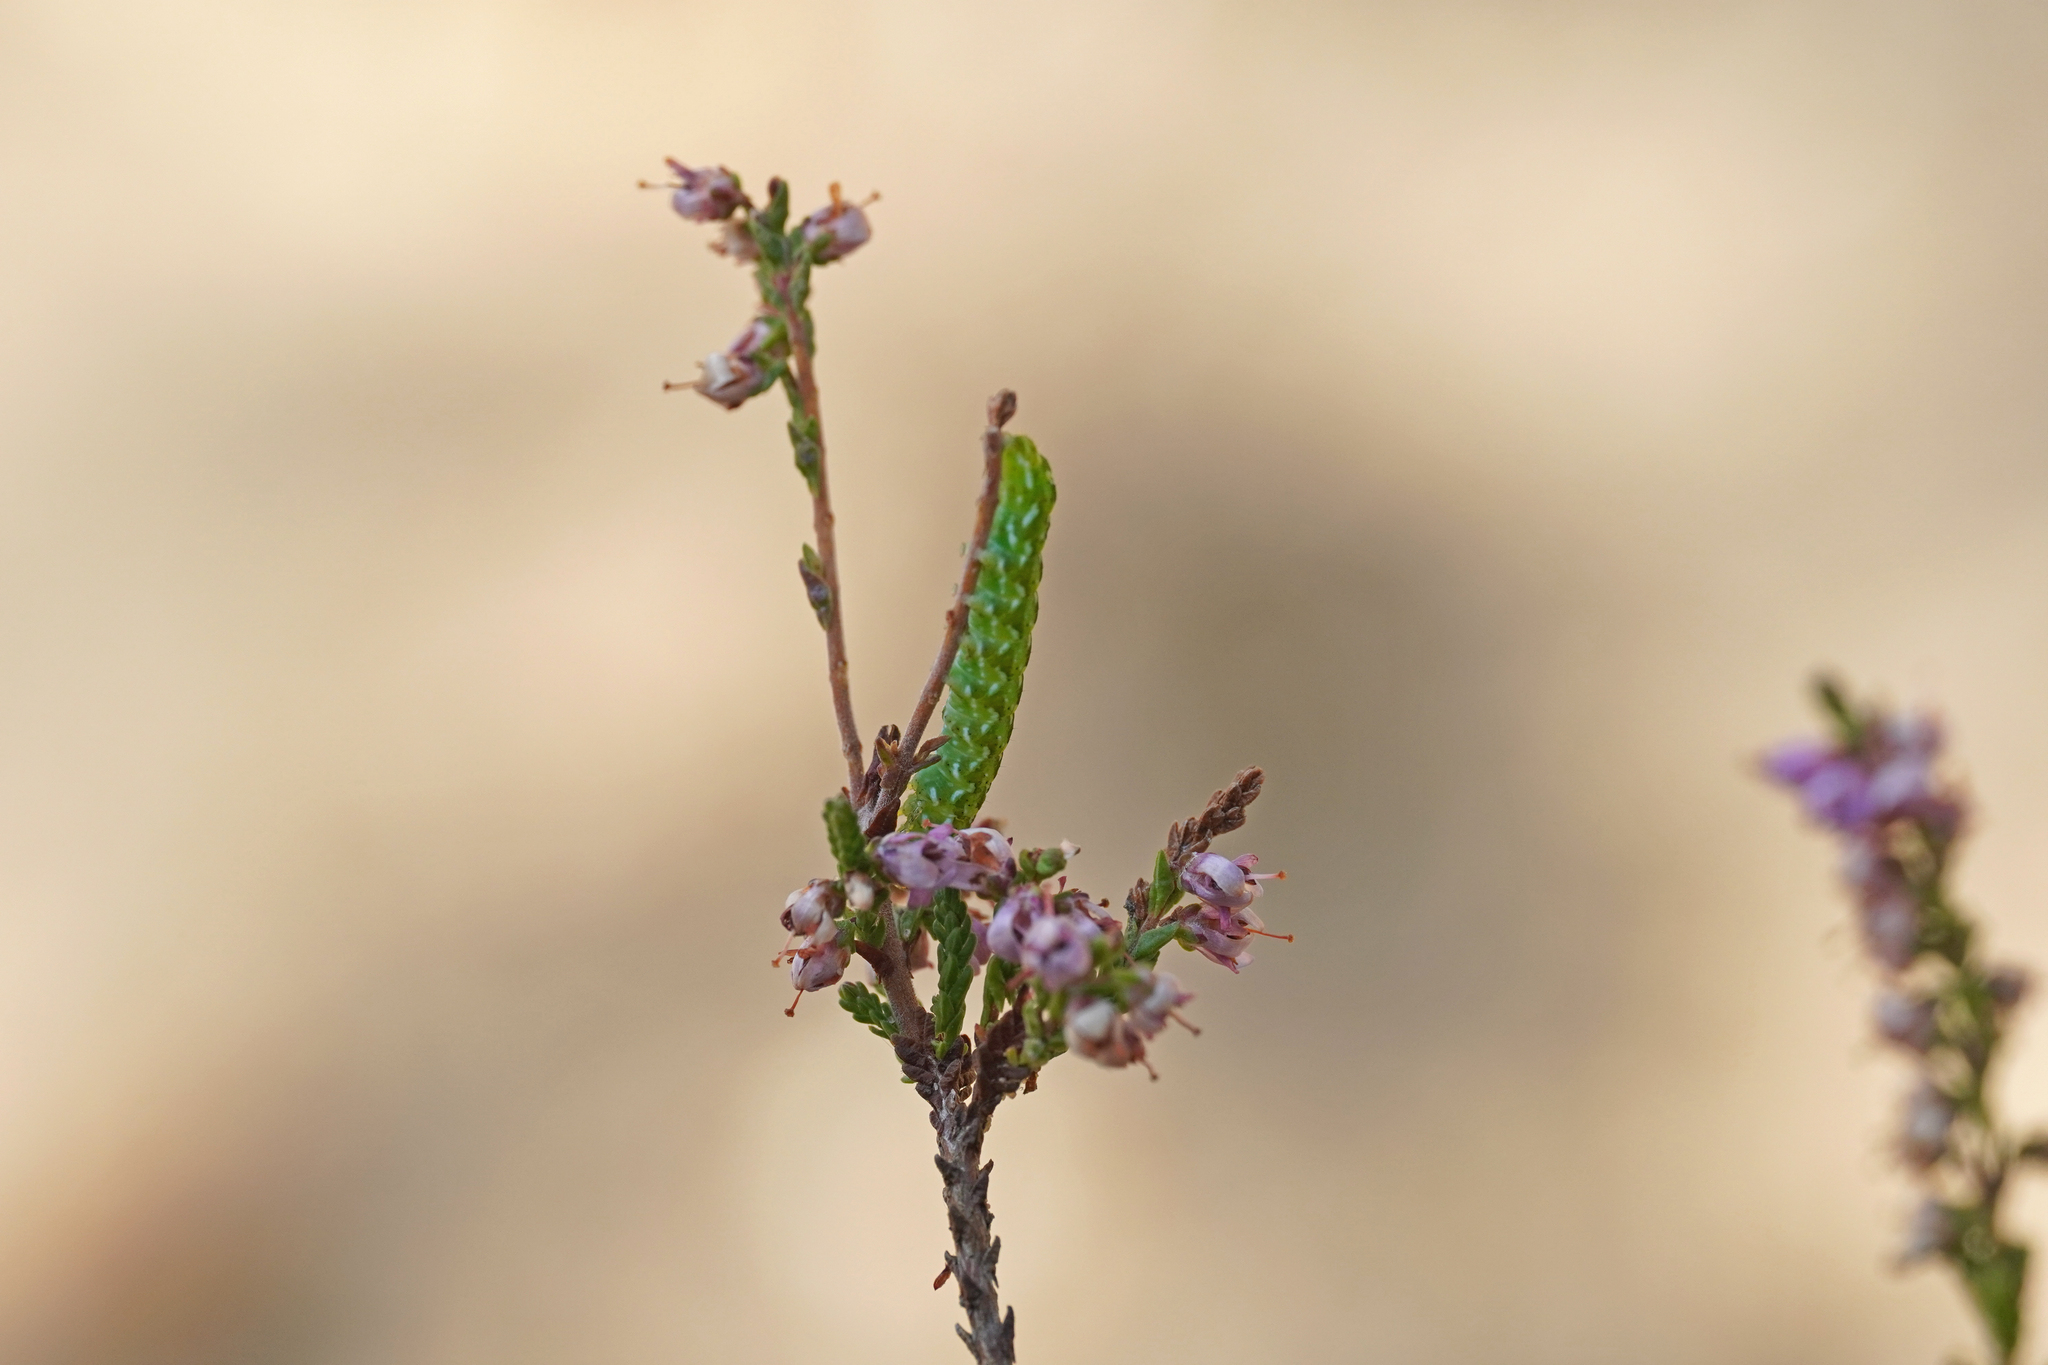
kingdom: Animalia
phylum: Arthropoda
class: Insecta
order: Lepidoptera
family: Noctuidae
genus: Anarta
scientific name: Anarta myrtilli
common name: Beautiful yellow underwing
